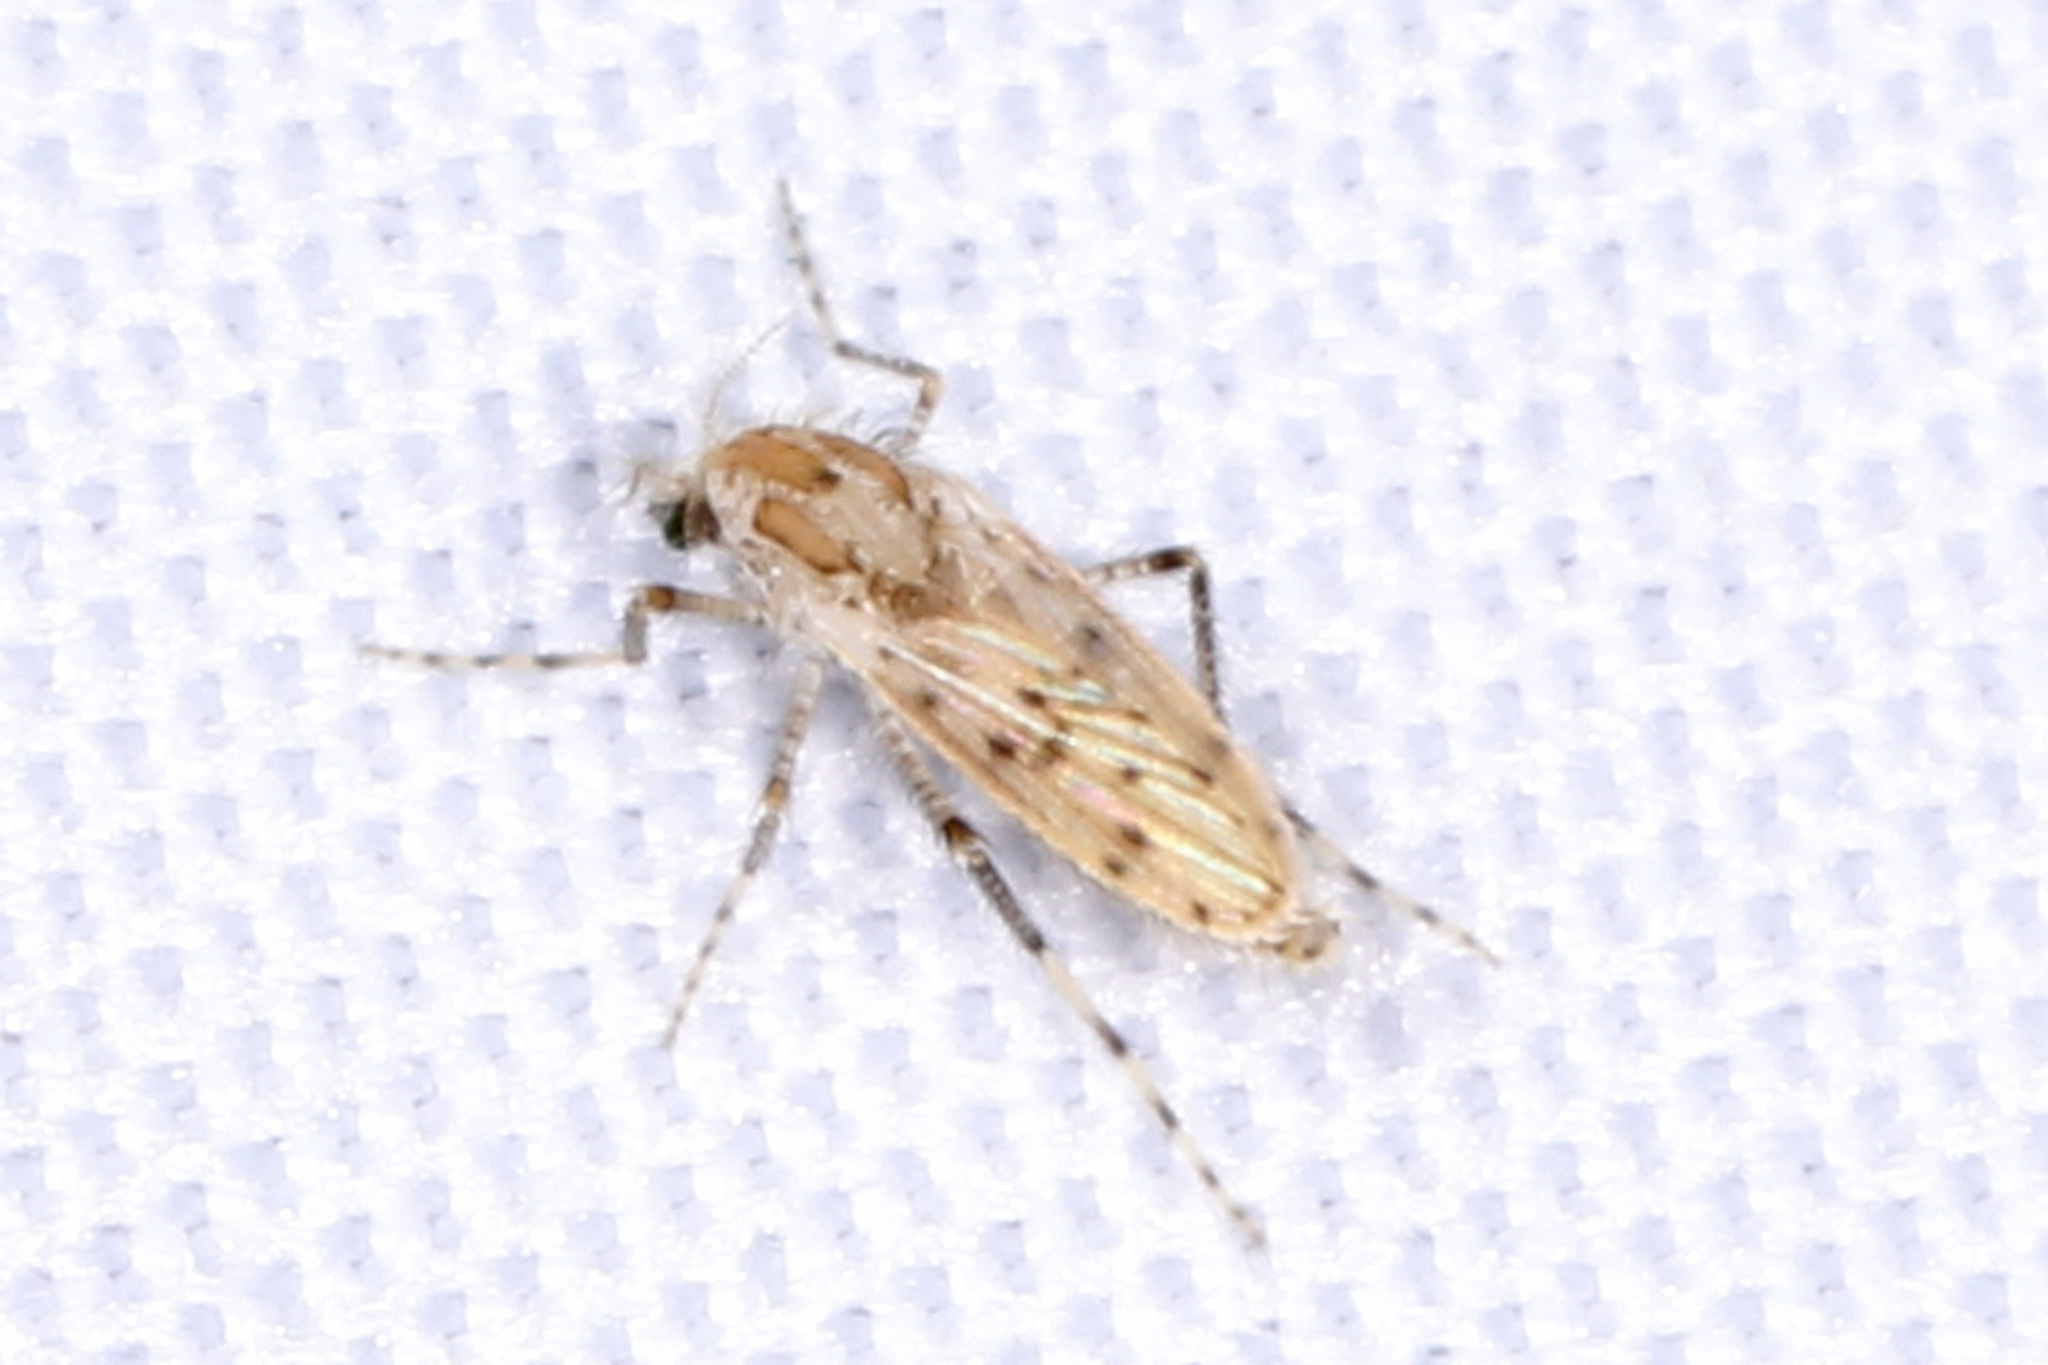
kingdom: Animalia
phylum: Arthropoda
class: Insecta
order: Diptera
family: Chaoboridae
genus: Chaoborus
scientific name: Chaoborus punctipennis
